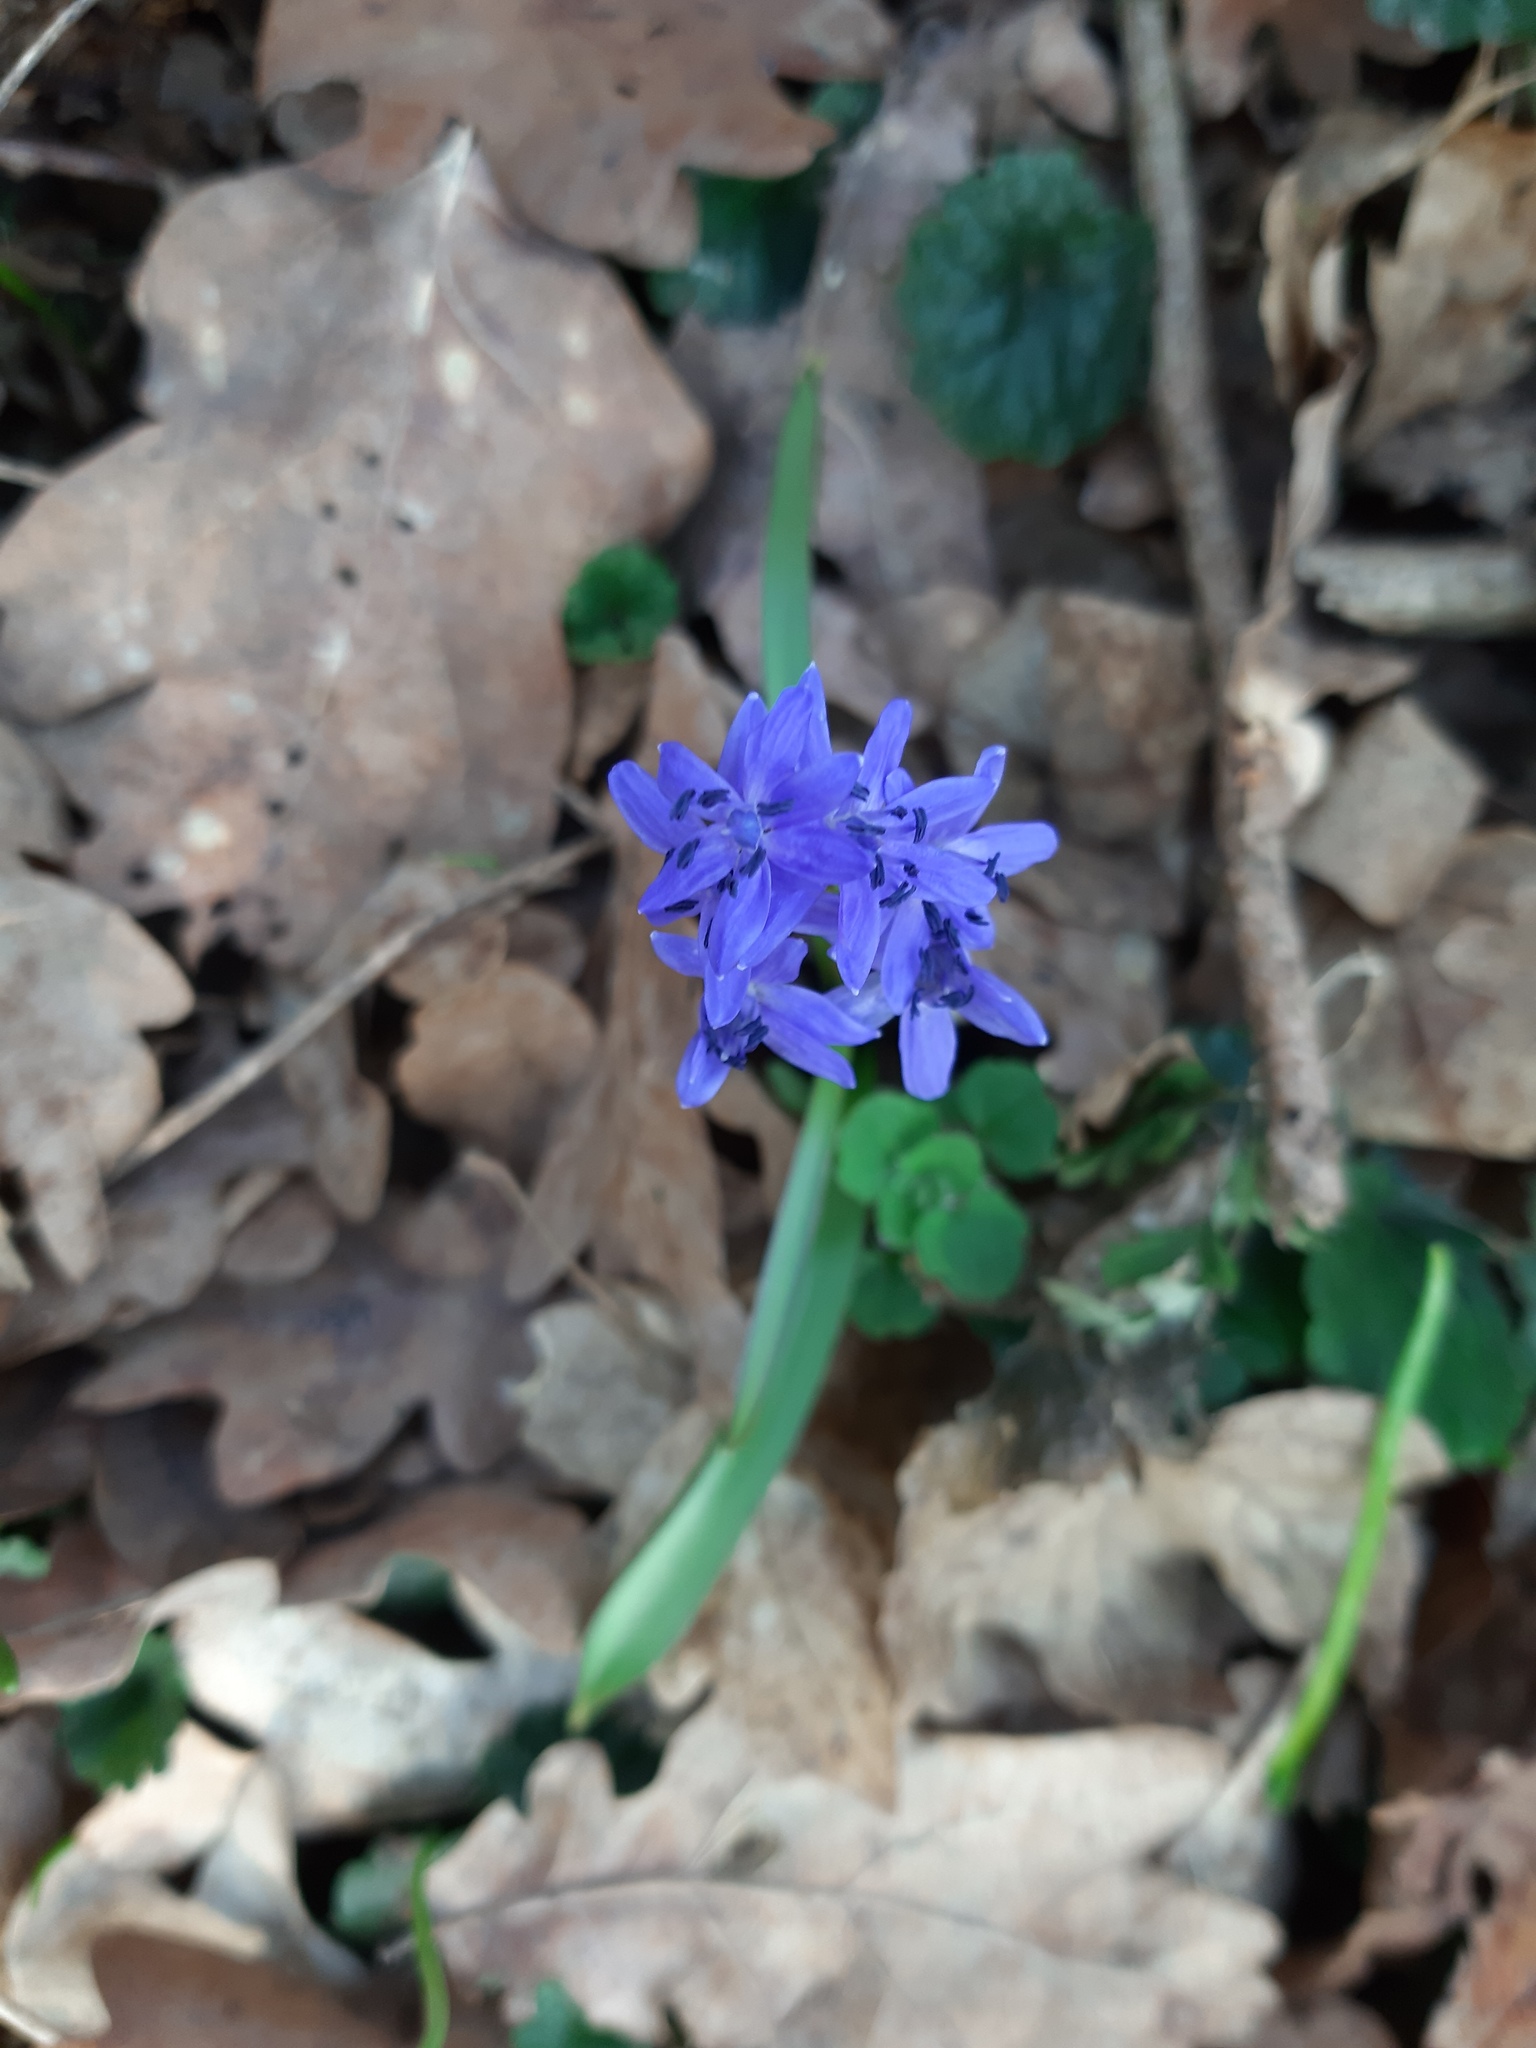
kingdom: Plantae
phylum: Tracheophyta
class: Liliopsida
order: Asparagales
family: Asparagaceae
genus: Scilla
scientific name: Scilla bifolia
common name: Alpine squill
